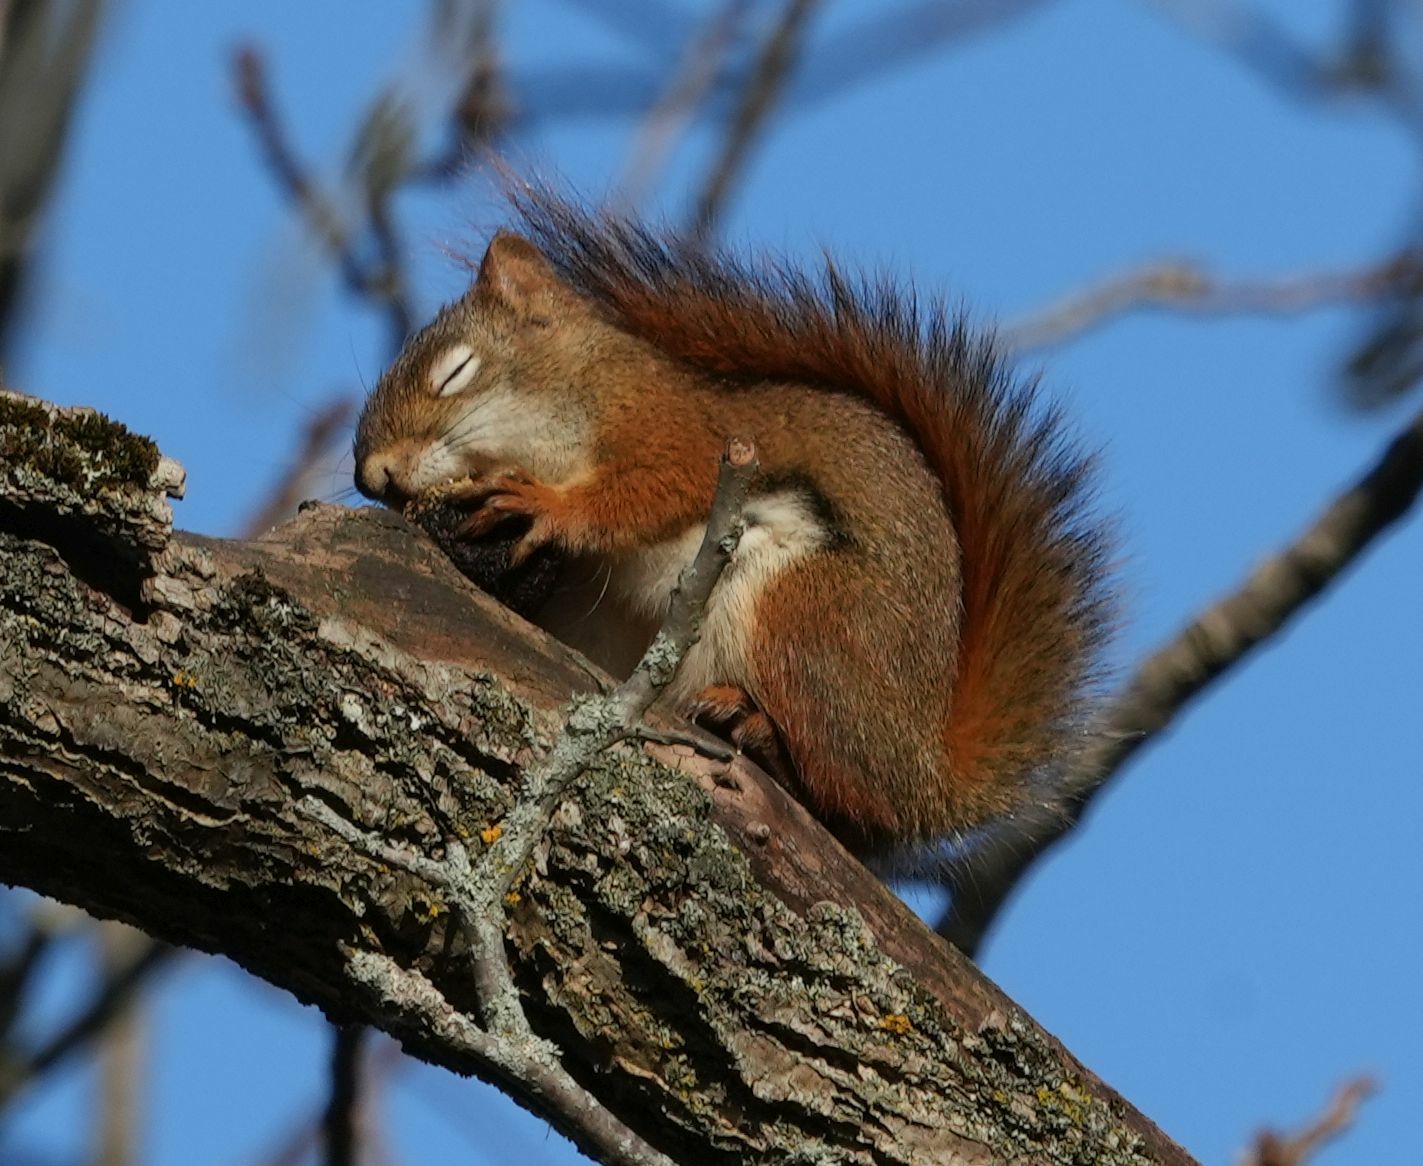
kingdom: Animalia
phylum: Chordata
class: Mammalia
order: Rodentia
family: Sciuridae
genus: Tamiasciurus
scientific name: Tamiasciurus hudsonicus
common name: Red squirrel
